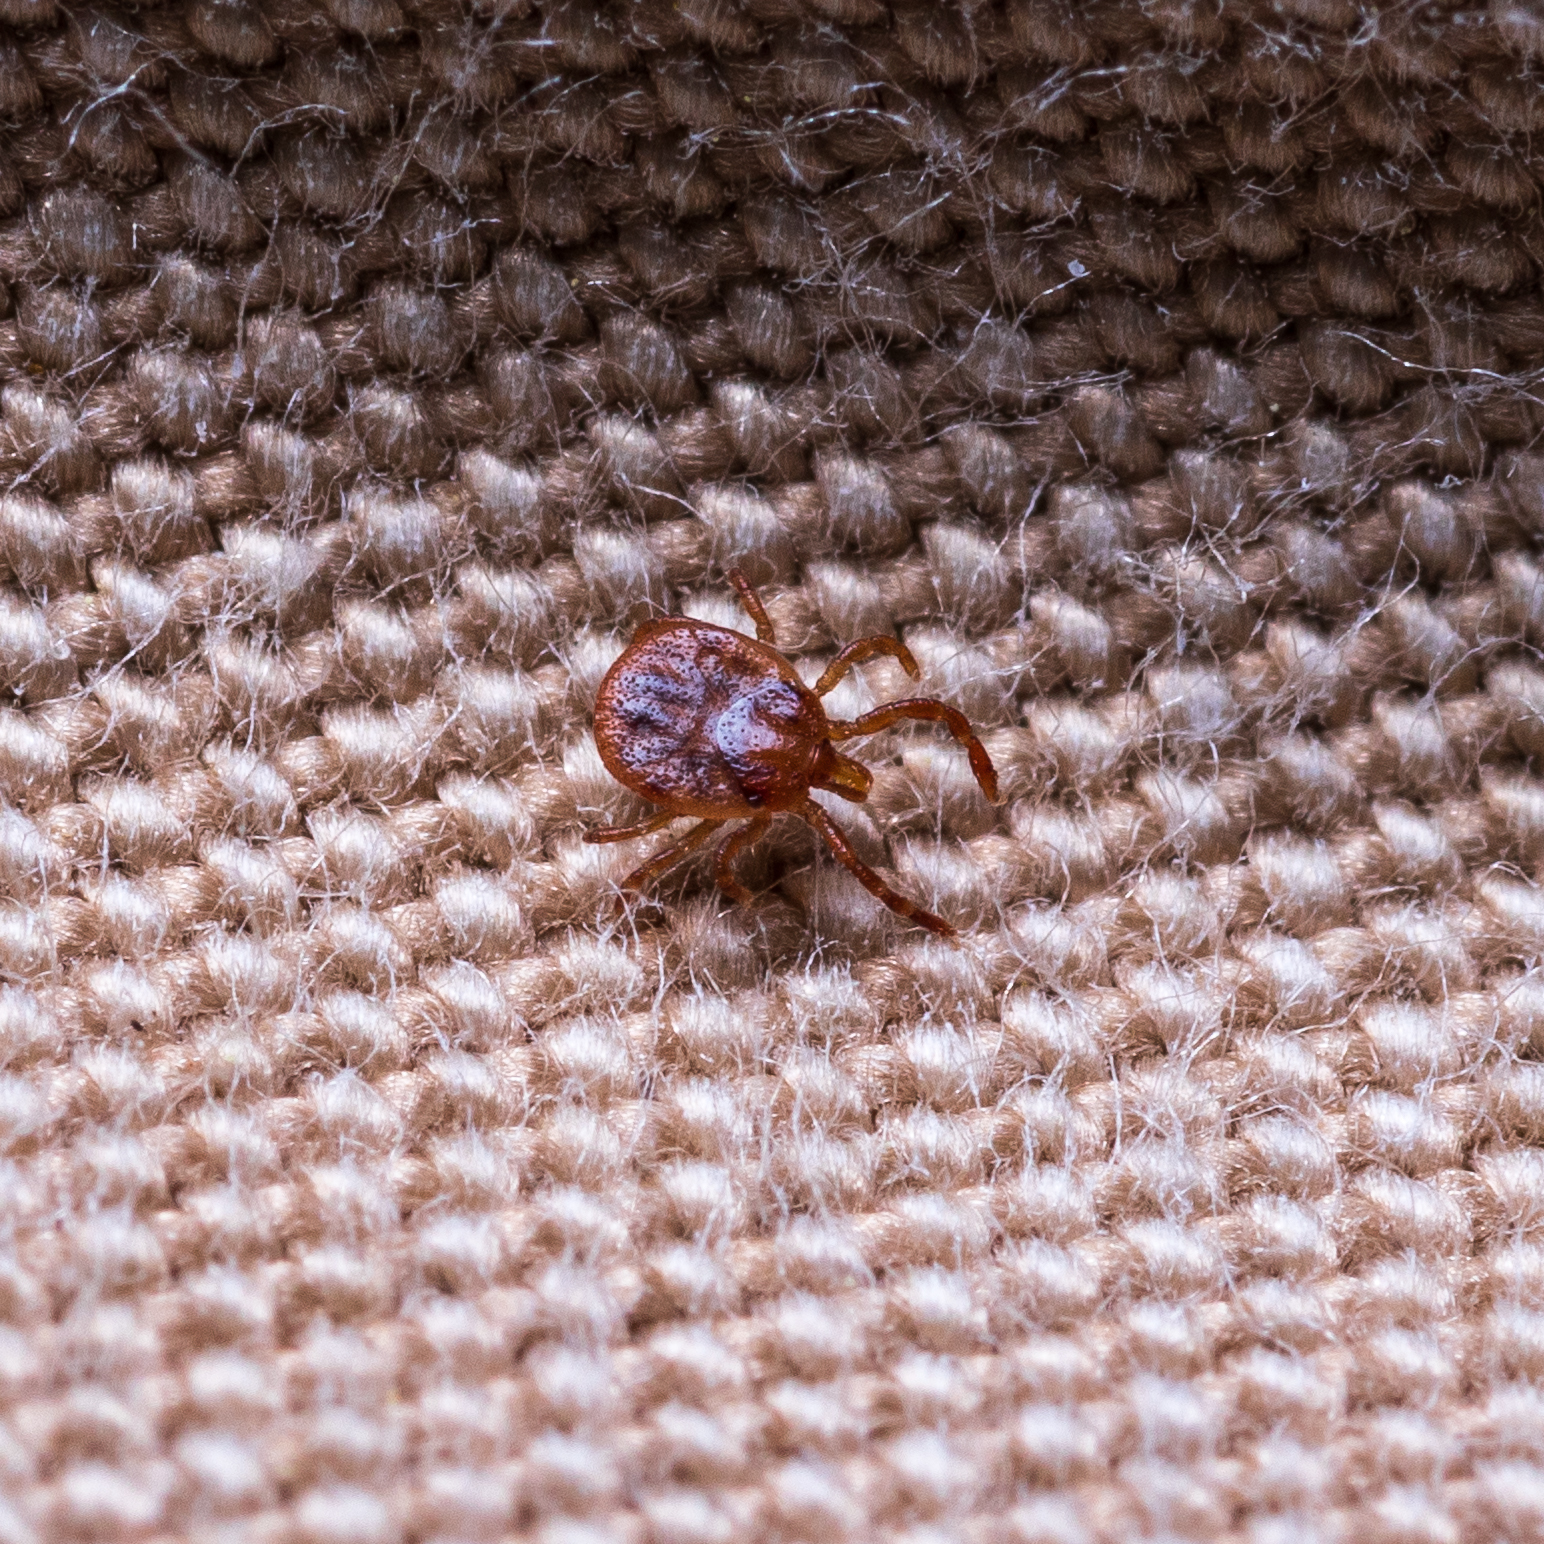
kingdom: Animalia
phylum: Arthropoda
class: Arachnida
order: Ixodida
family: Ixodidae
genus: Amblyomma
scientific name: Amblyomma americanum
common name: Lone star tick
